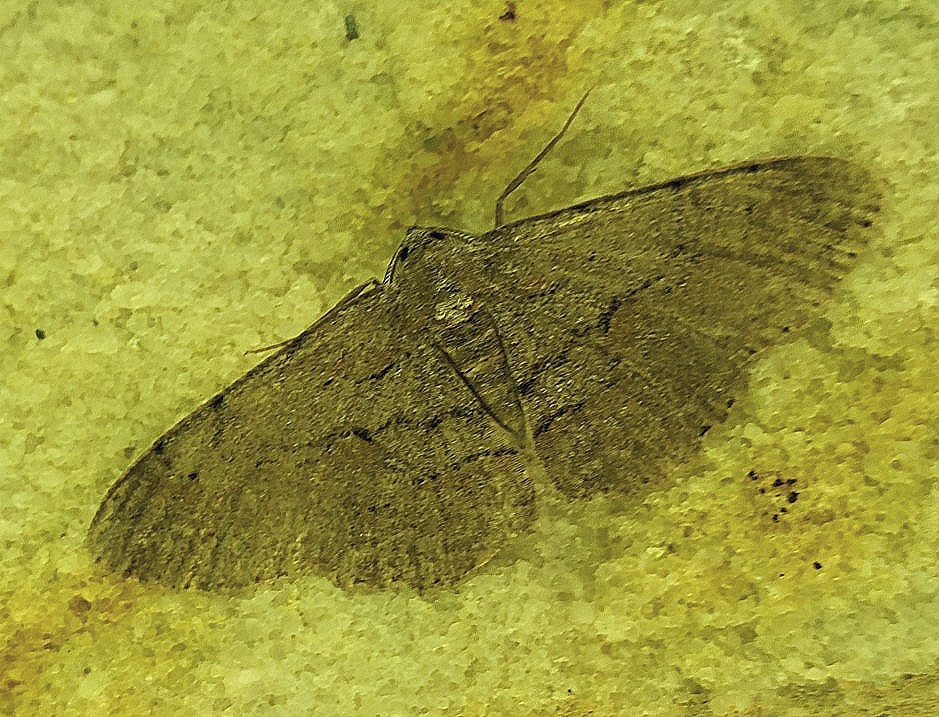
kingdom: Animalia
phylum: Arthropoda
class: Insecta
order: Lepidoptera
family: Geometridae
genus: Iridopsis
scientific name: Iridopsis vellivolata
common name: Large purplish gray
